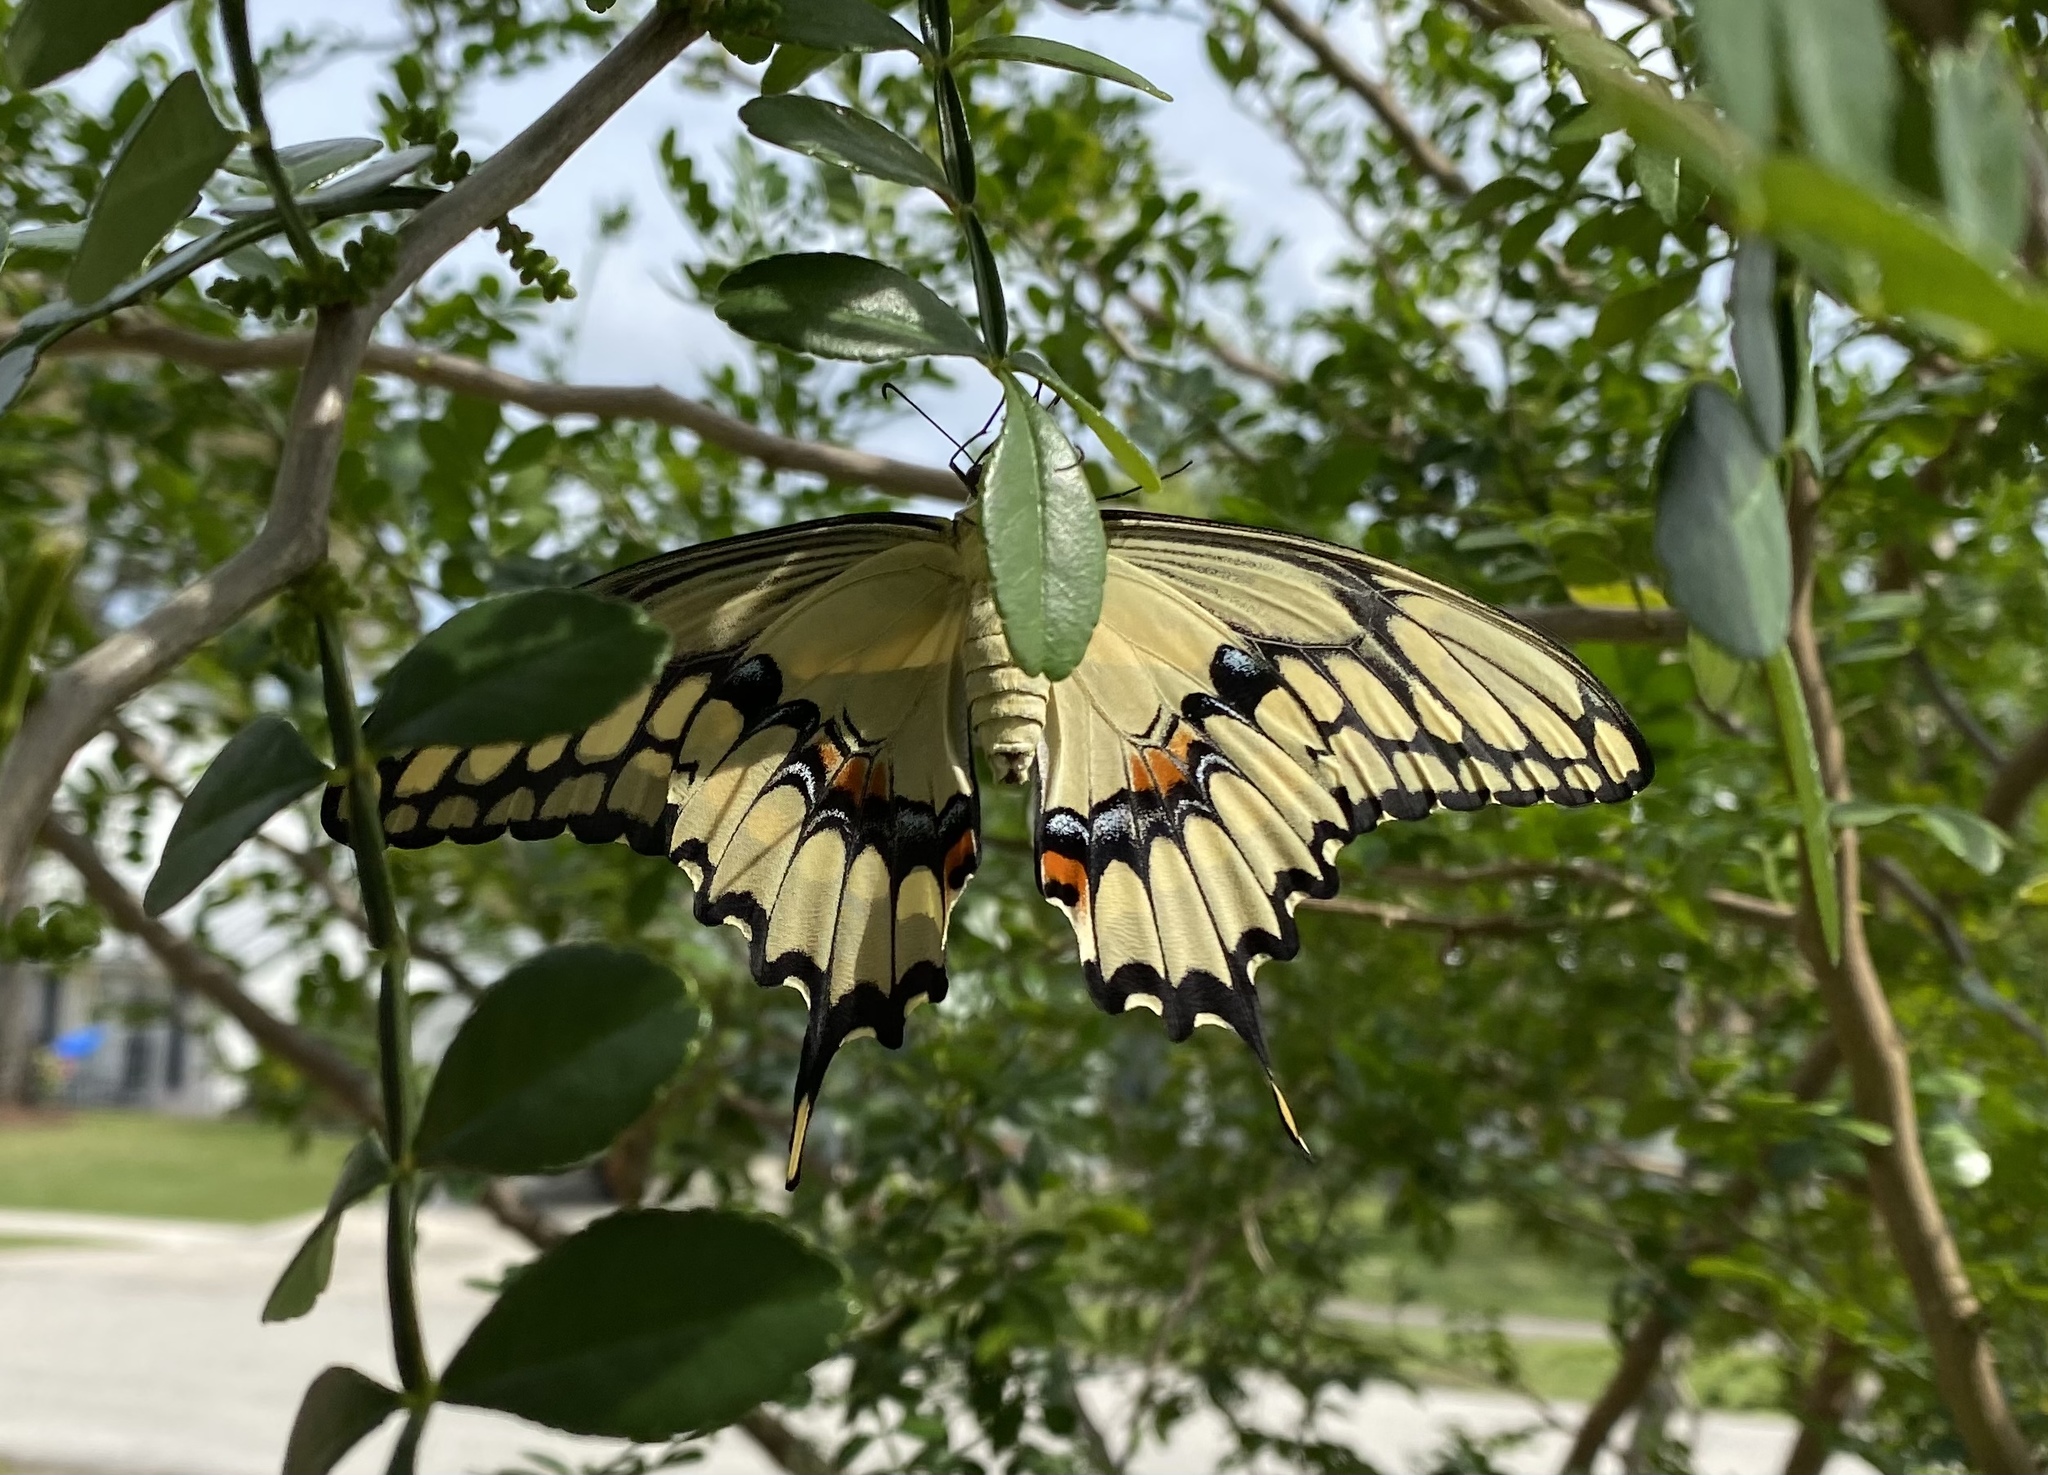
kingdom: Animalia
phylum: Arthropoda
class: Insecta
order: Lepidoptera
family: Papilionidae
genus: Papilio
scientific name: Papilio cresphontes
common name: Giant swallowtail
